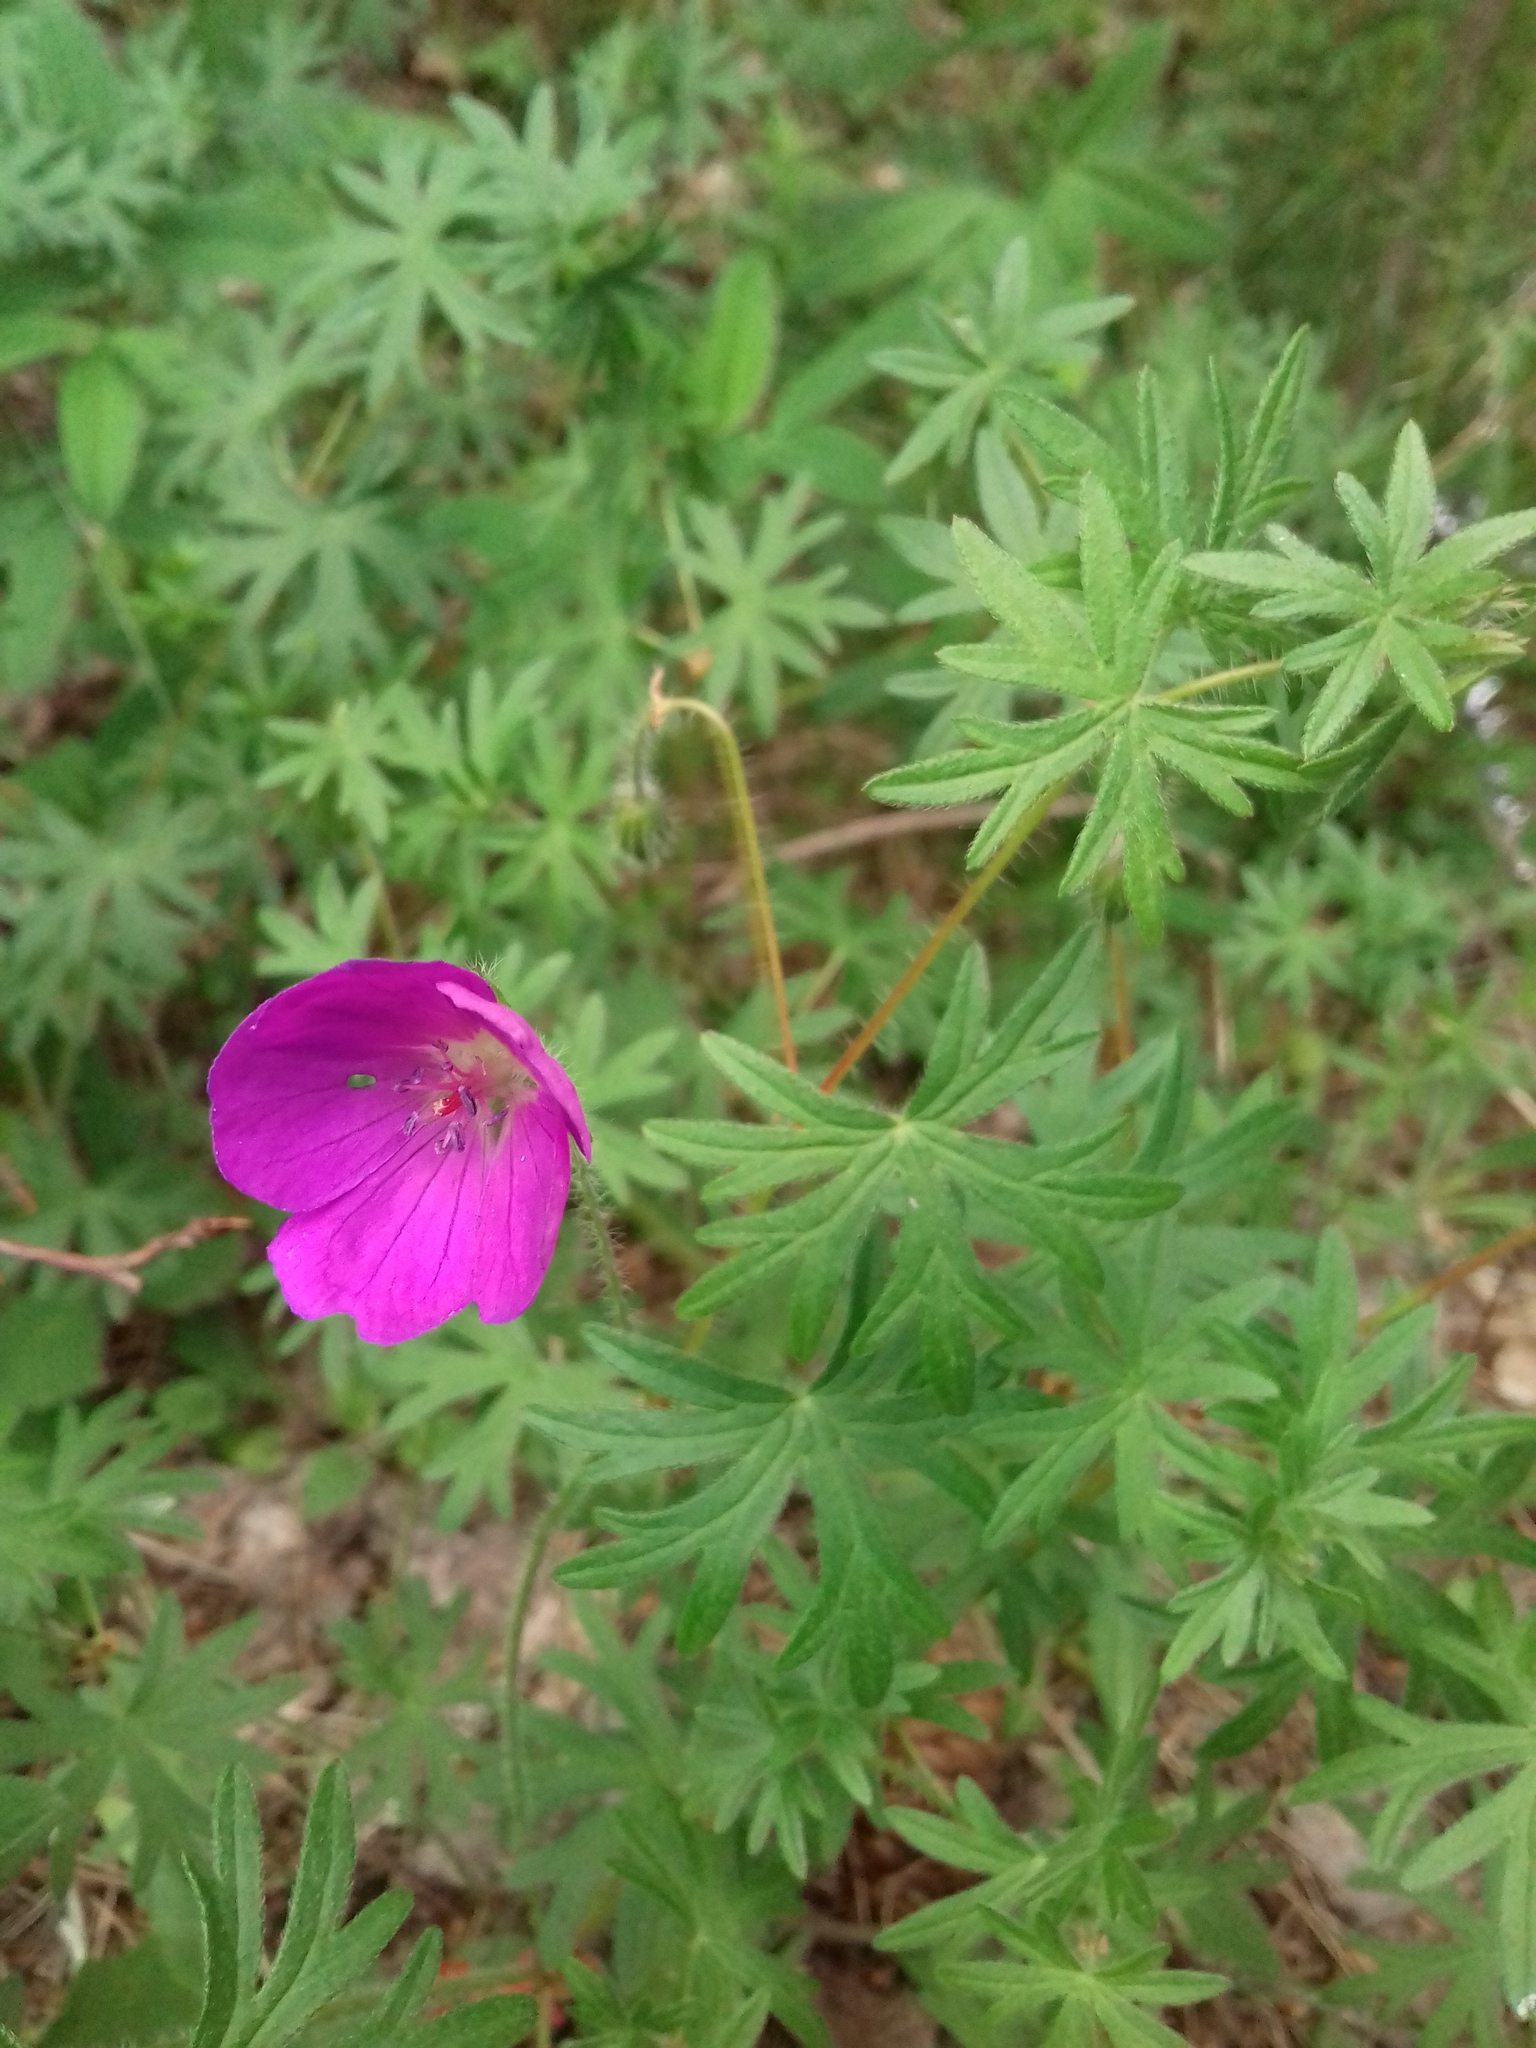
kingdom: Plantae
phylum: Tracheophyta
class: Magnoliopsida
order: Geraniales
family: Geraniaceae
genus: Geranium
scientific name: Geranium sanguineum
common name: Bloody crane's-bill
